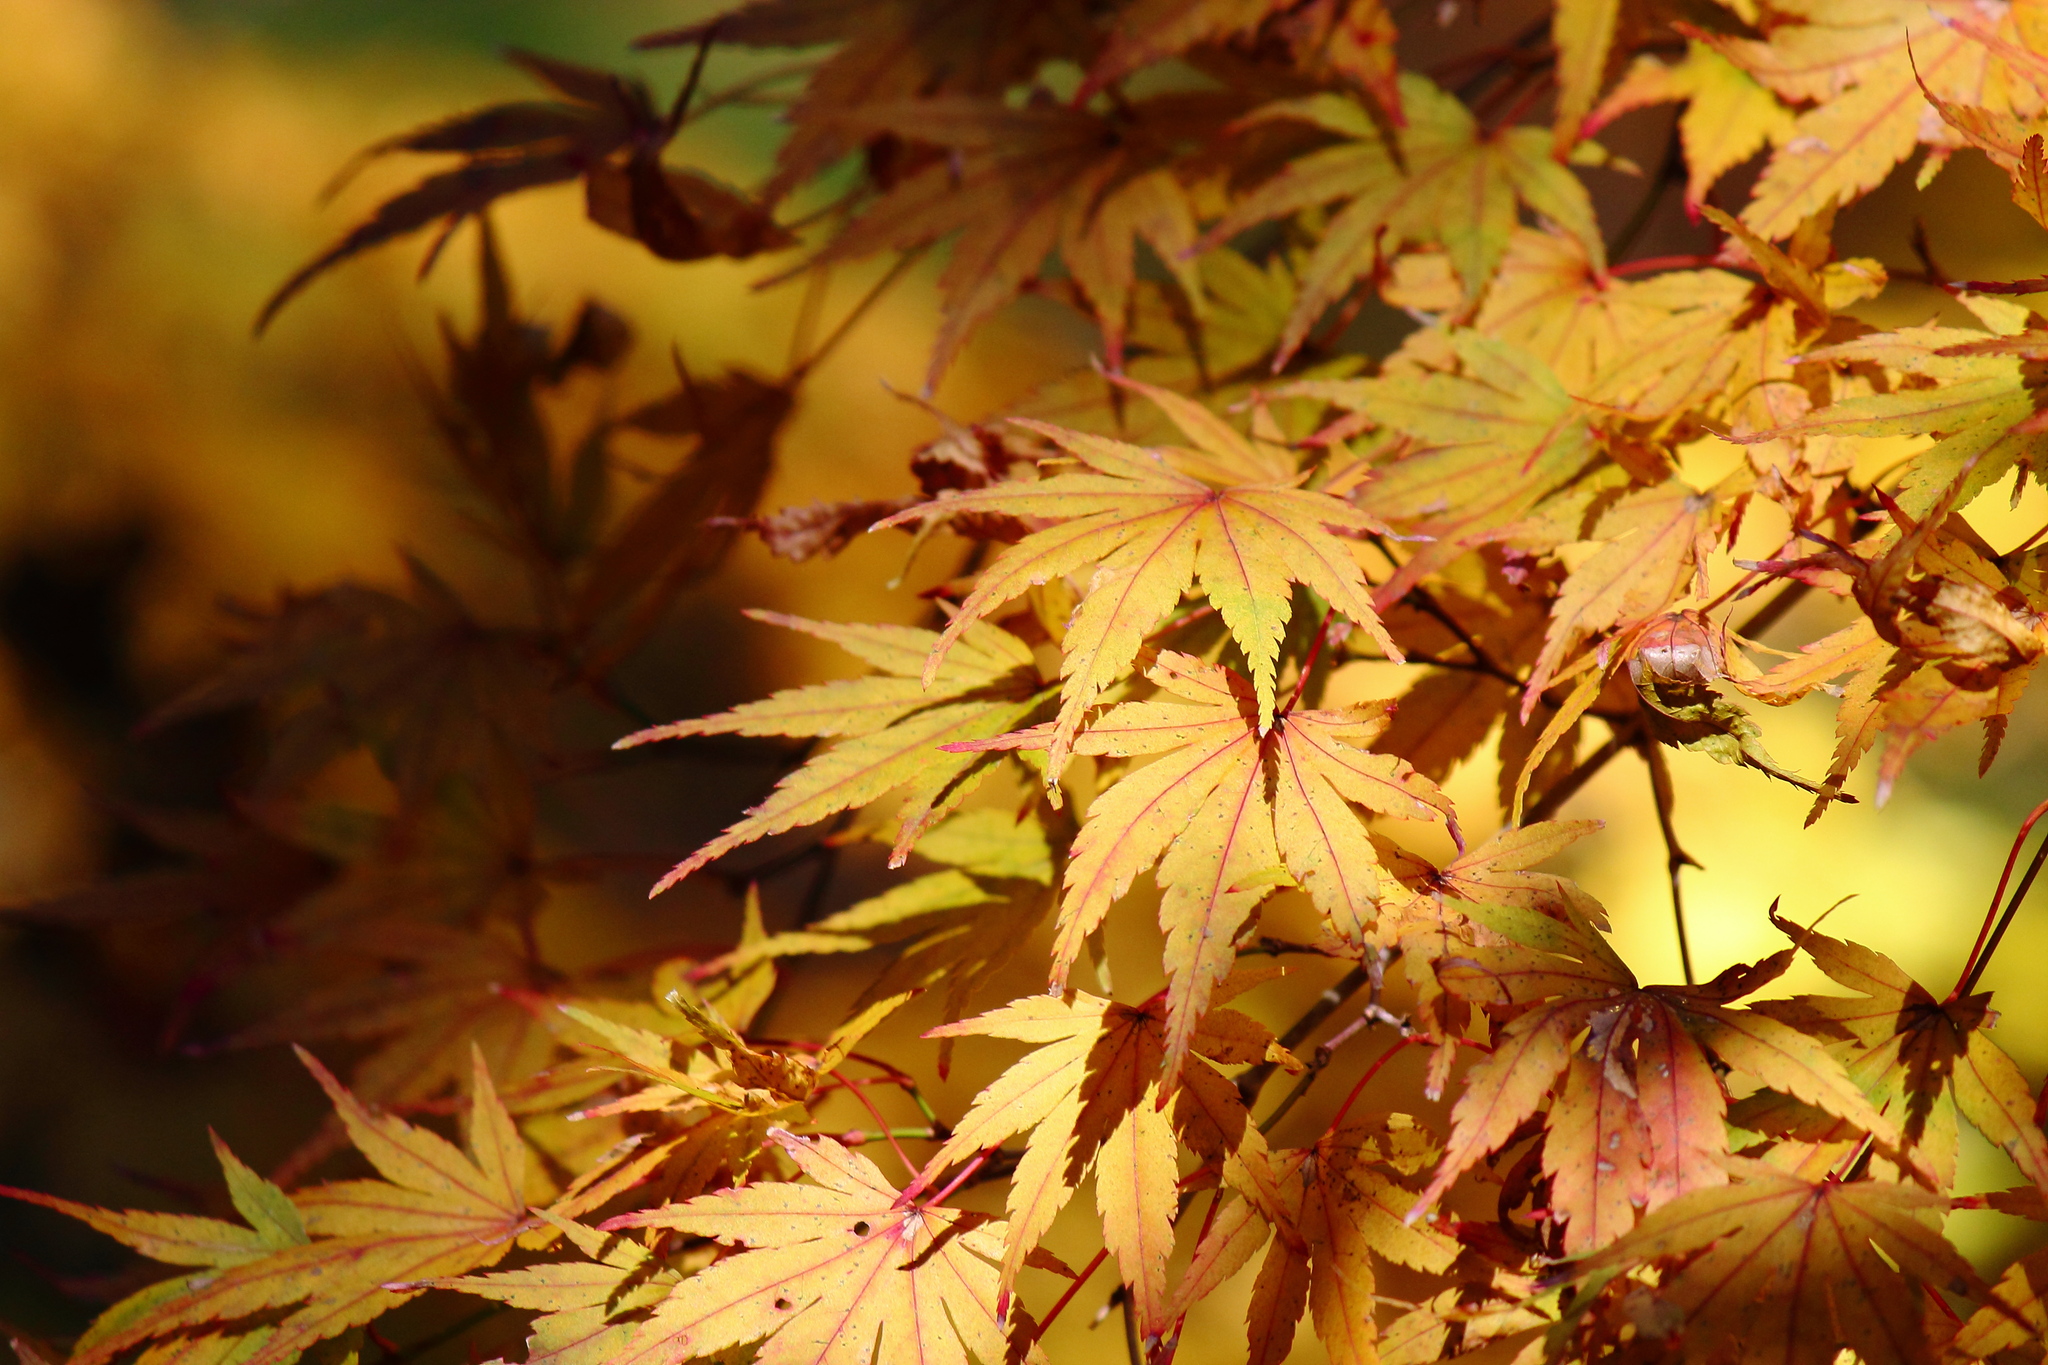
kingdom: Plantae
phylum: Tracheophyta
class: Magnoliopsida
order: Sapindales
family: Sapindaceae
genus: Acer
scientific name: Acer palmatum
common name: Japanese maple
